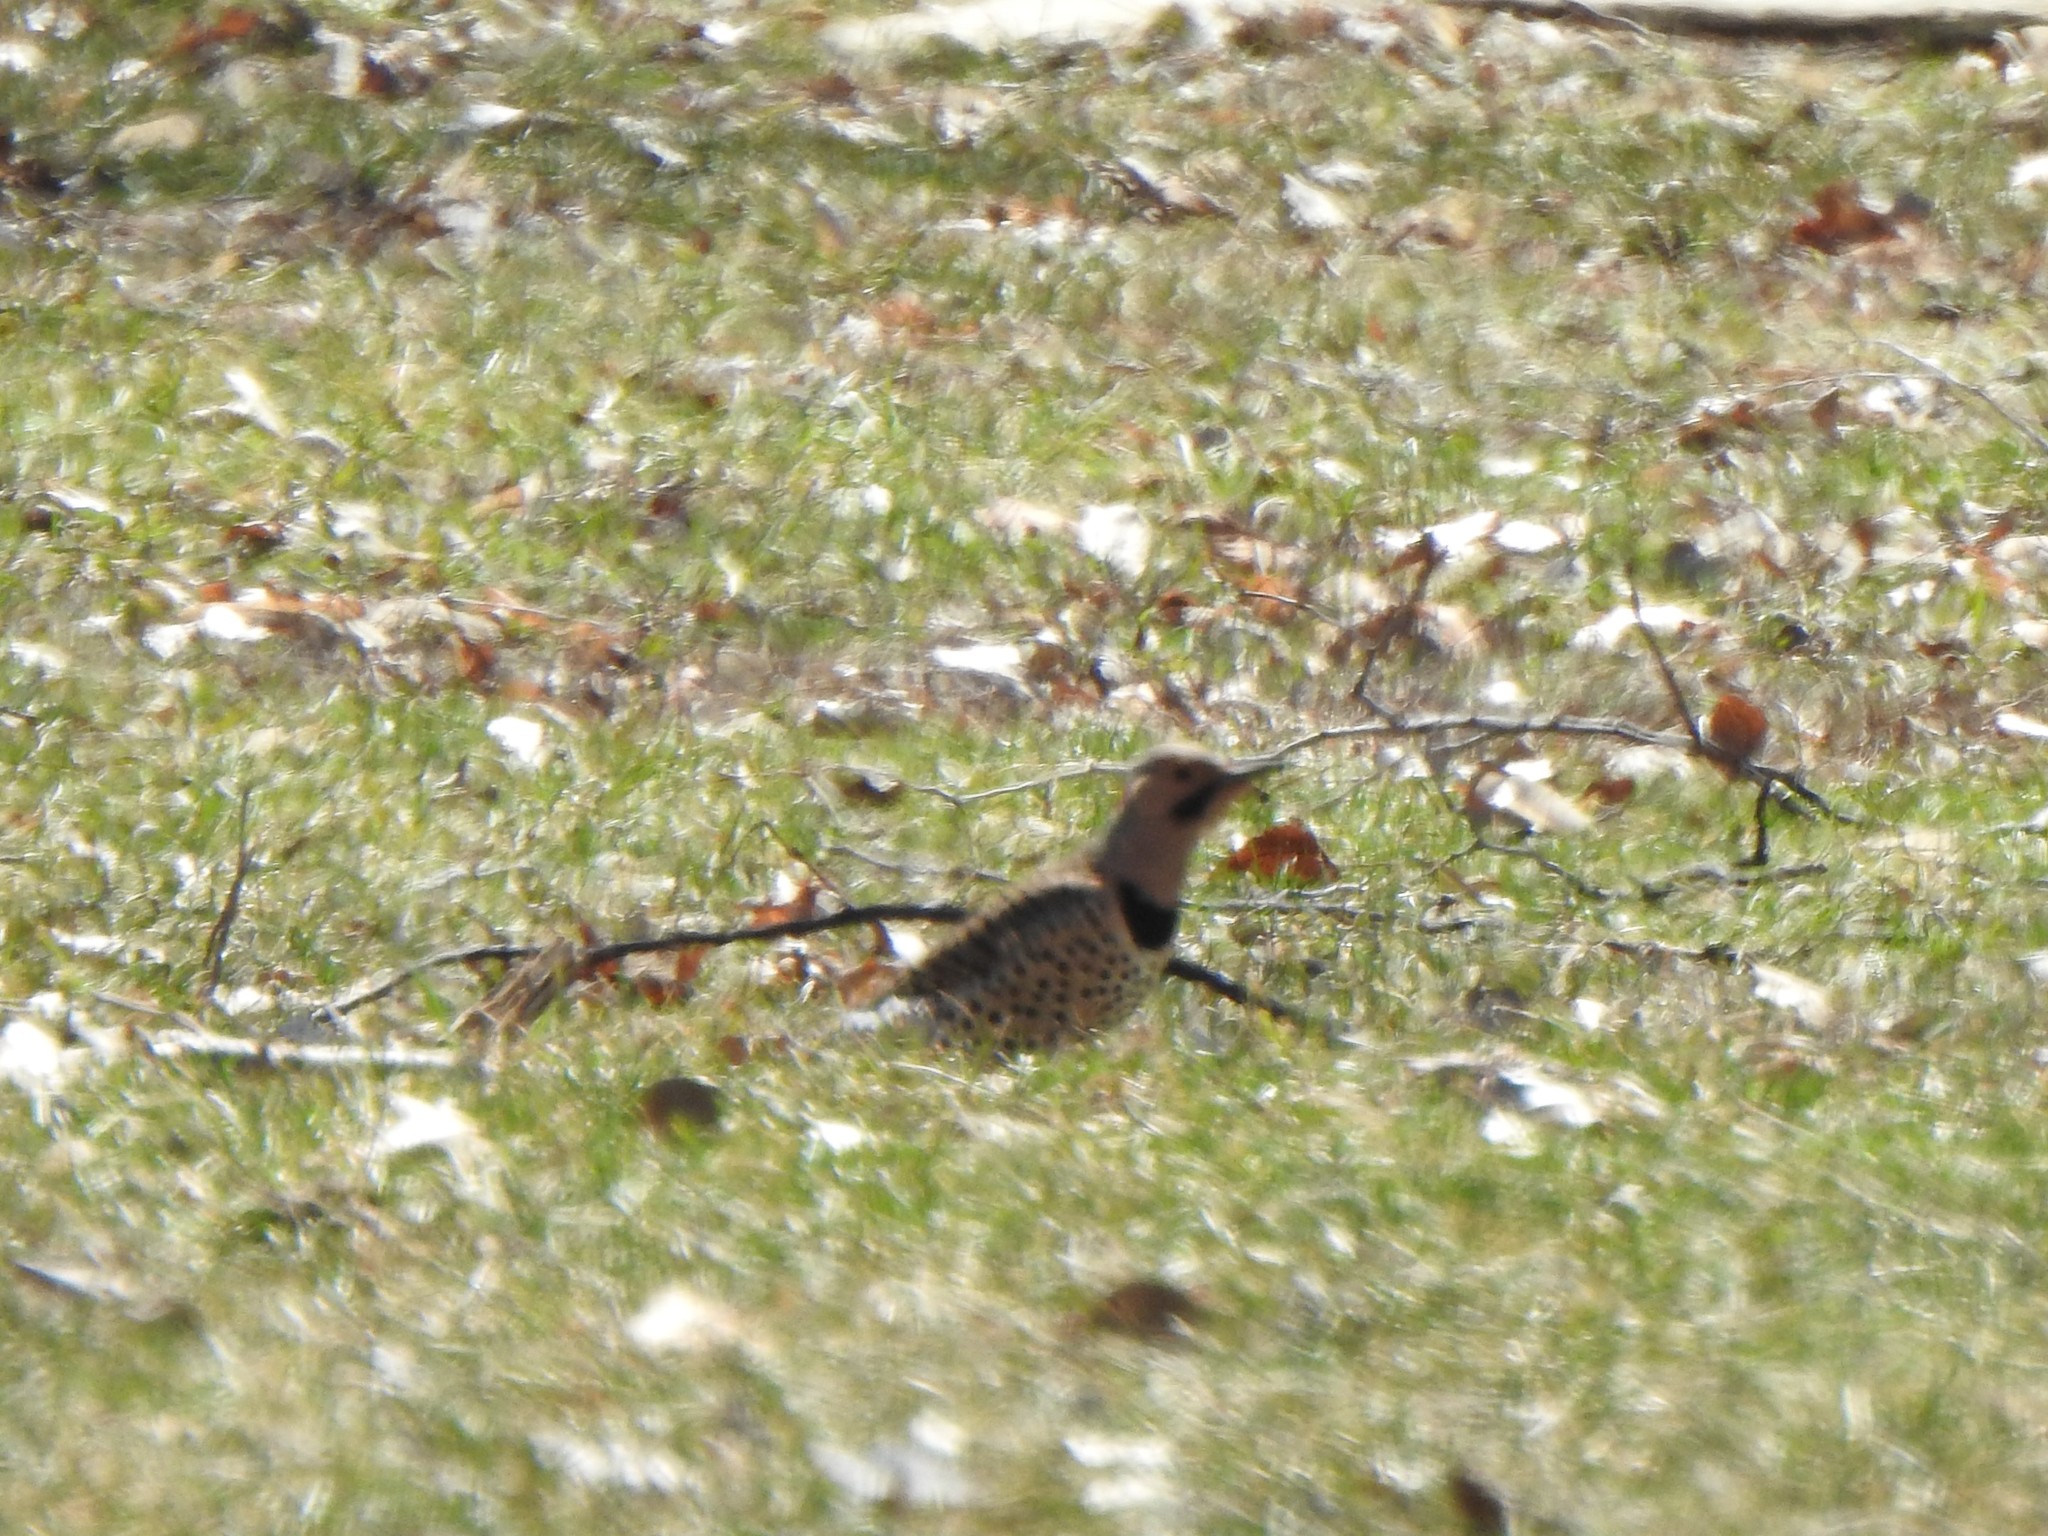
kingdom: Animalia
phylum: Chordata
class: Aves
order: Piciformes
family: Picidae
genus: Colaptes
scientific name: Colaptes auratus
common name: Northern flicker
